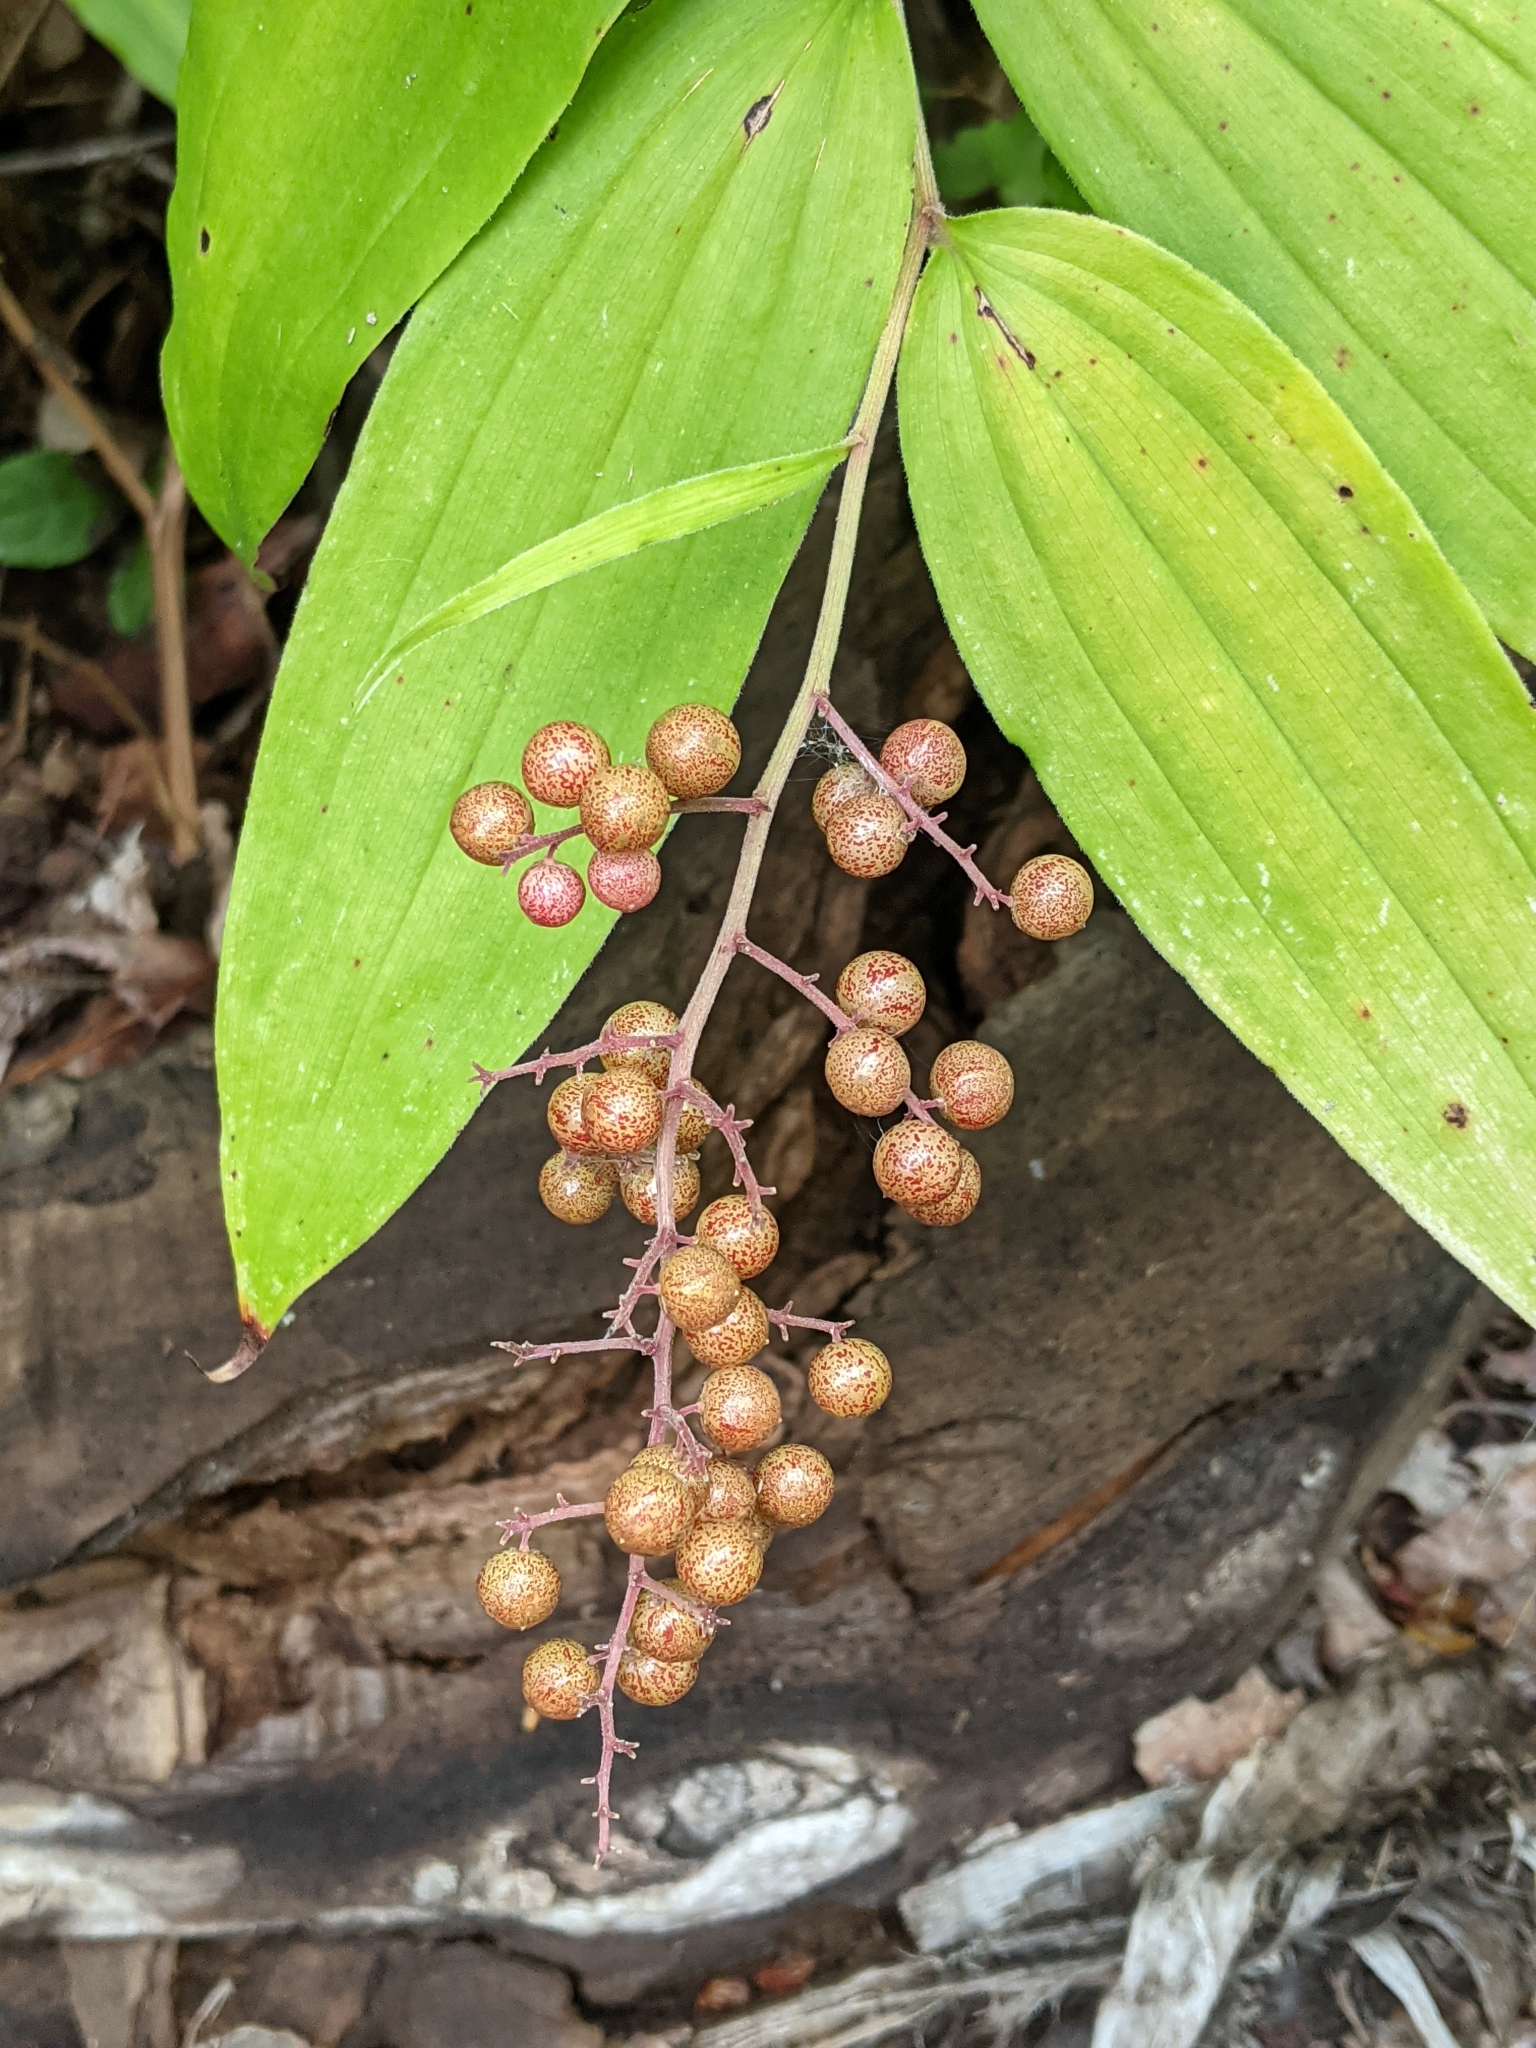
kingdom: Plantae
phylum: Tracheophyta
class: Liliopsida
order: Asparagales
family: Asparagaceae
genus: Maianthemum
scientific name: Maianthemum racemosum
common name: False spikenard
